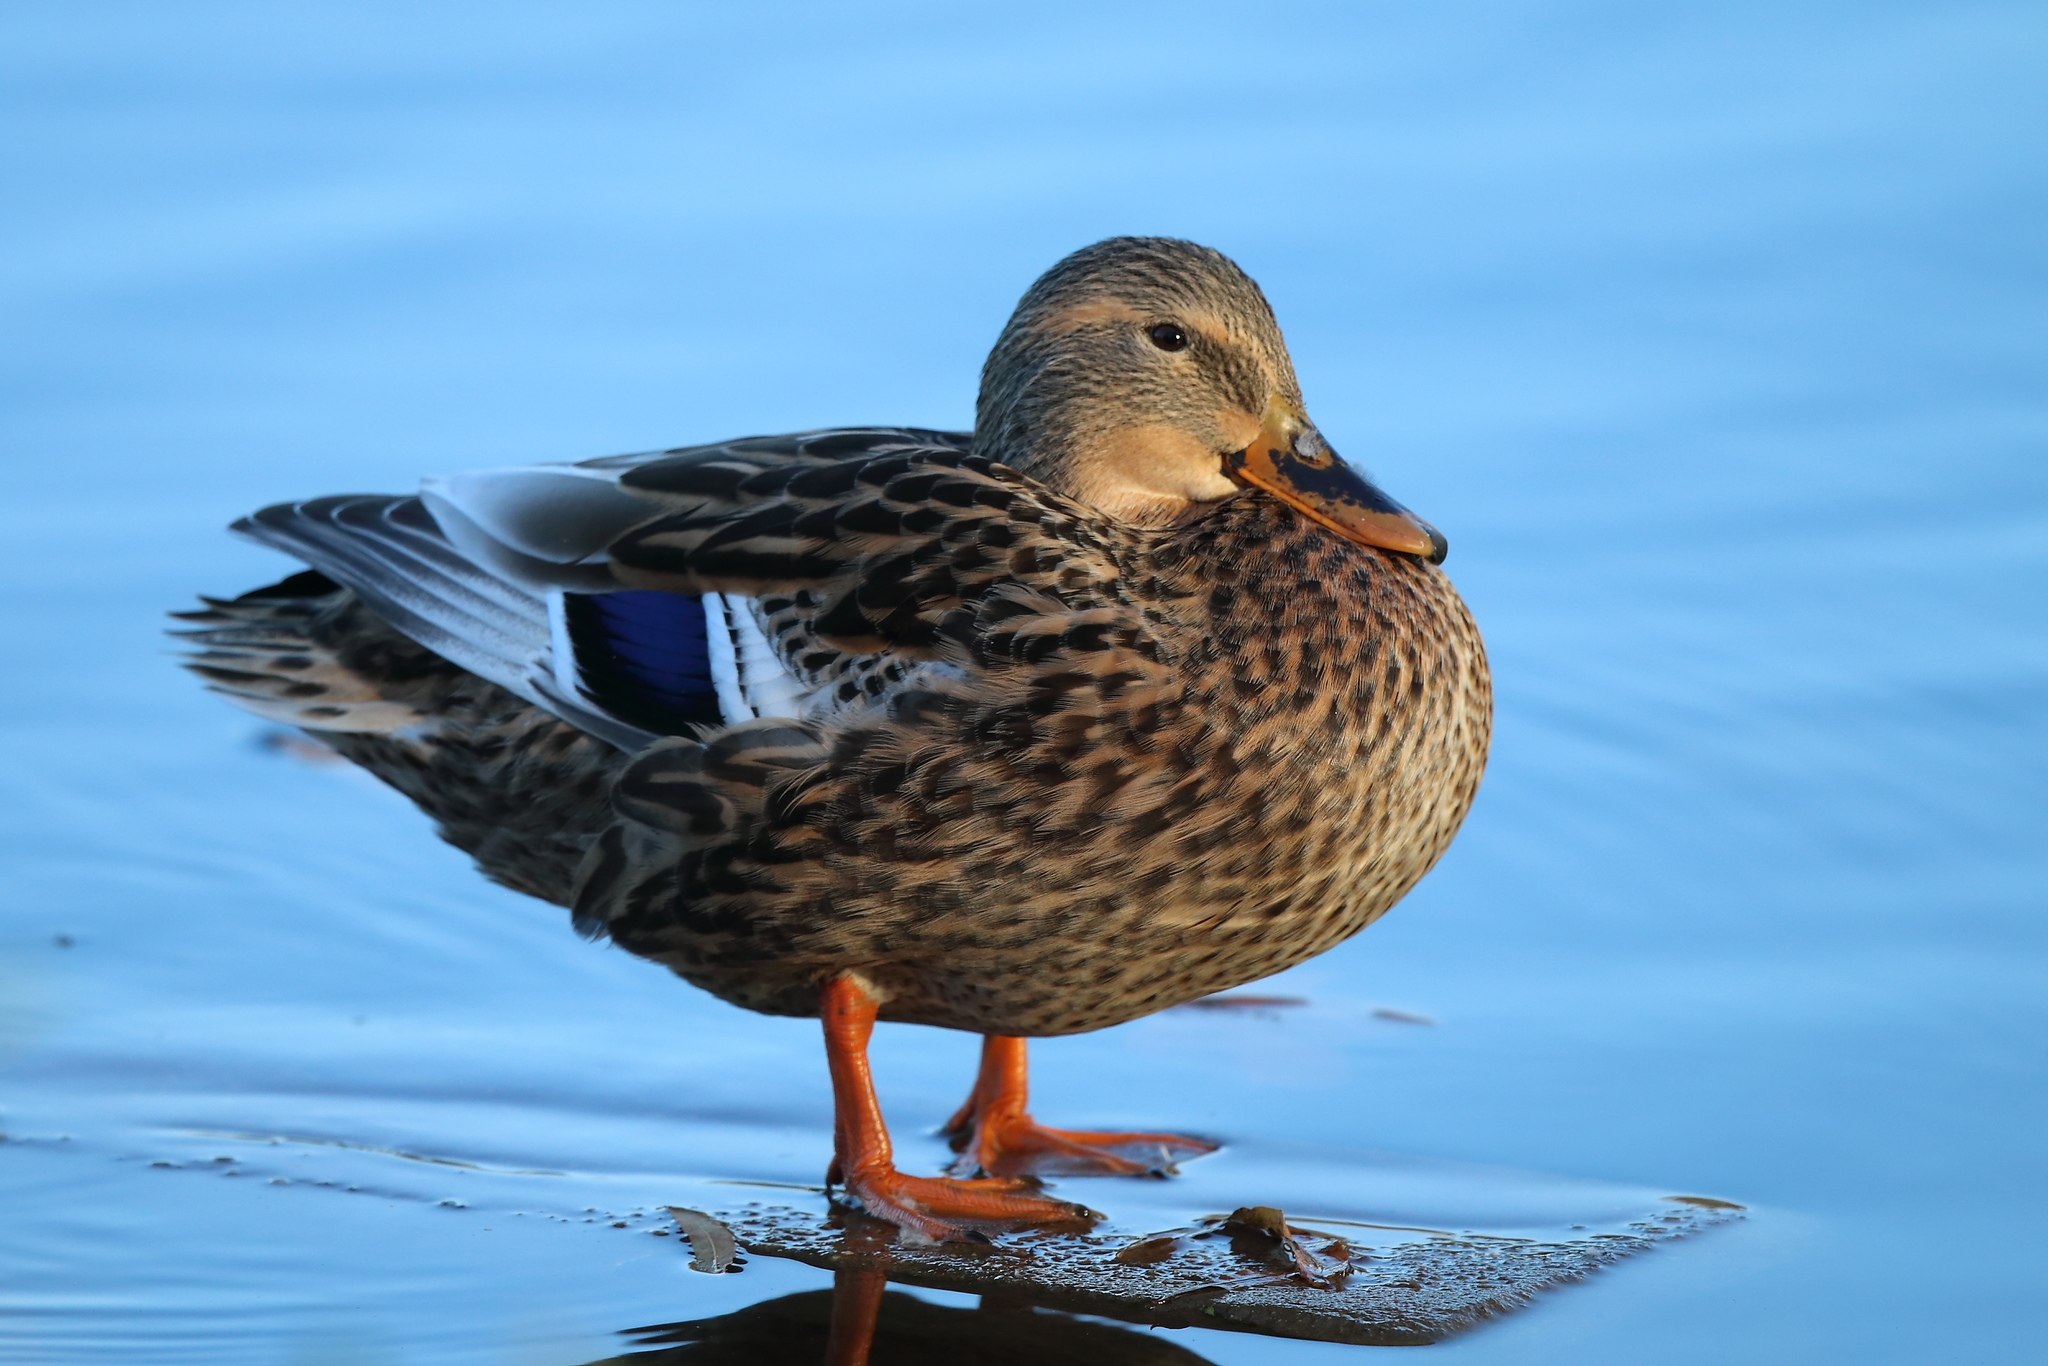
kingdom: Animalia
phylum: Chordata
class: Aves
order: Anseriformes
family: Anatidae
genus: Anas
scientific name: Anas platyrhynchos
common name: Mallard
